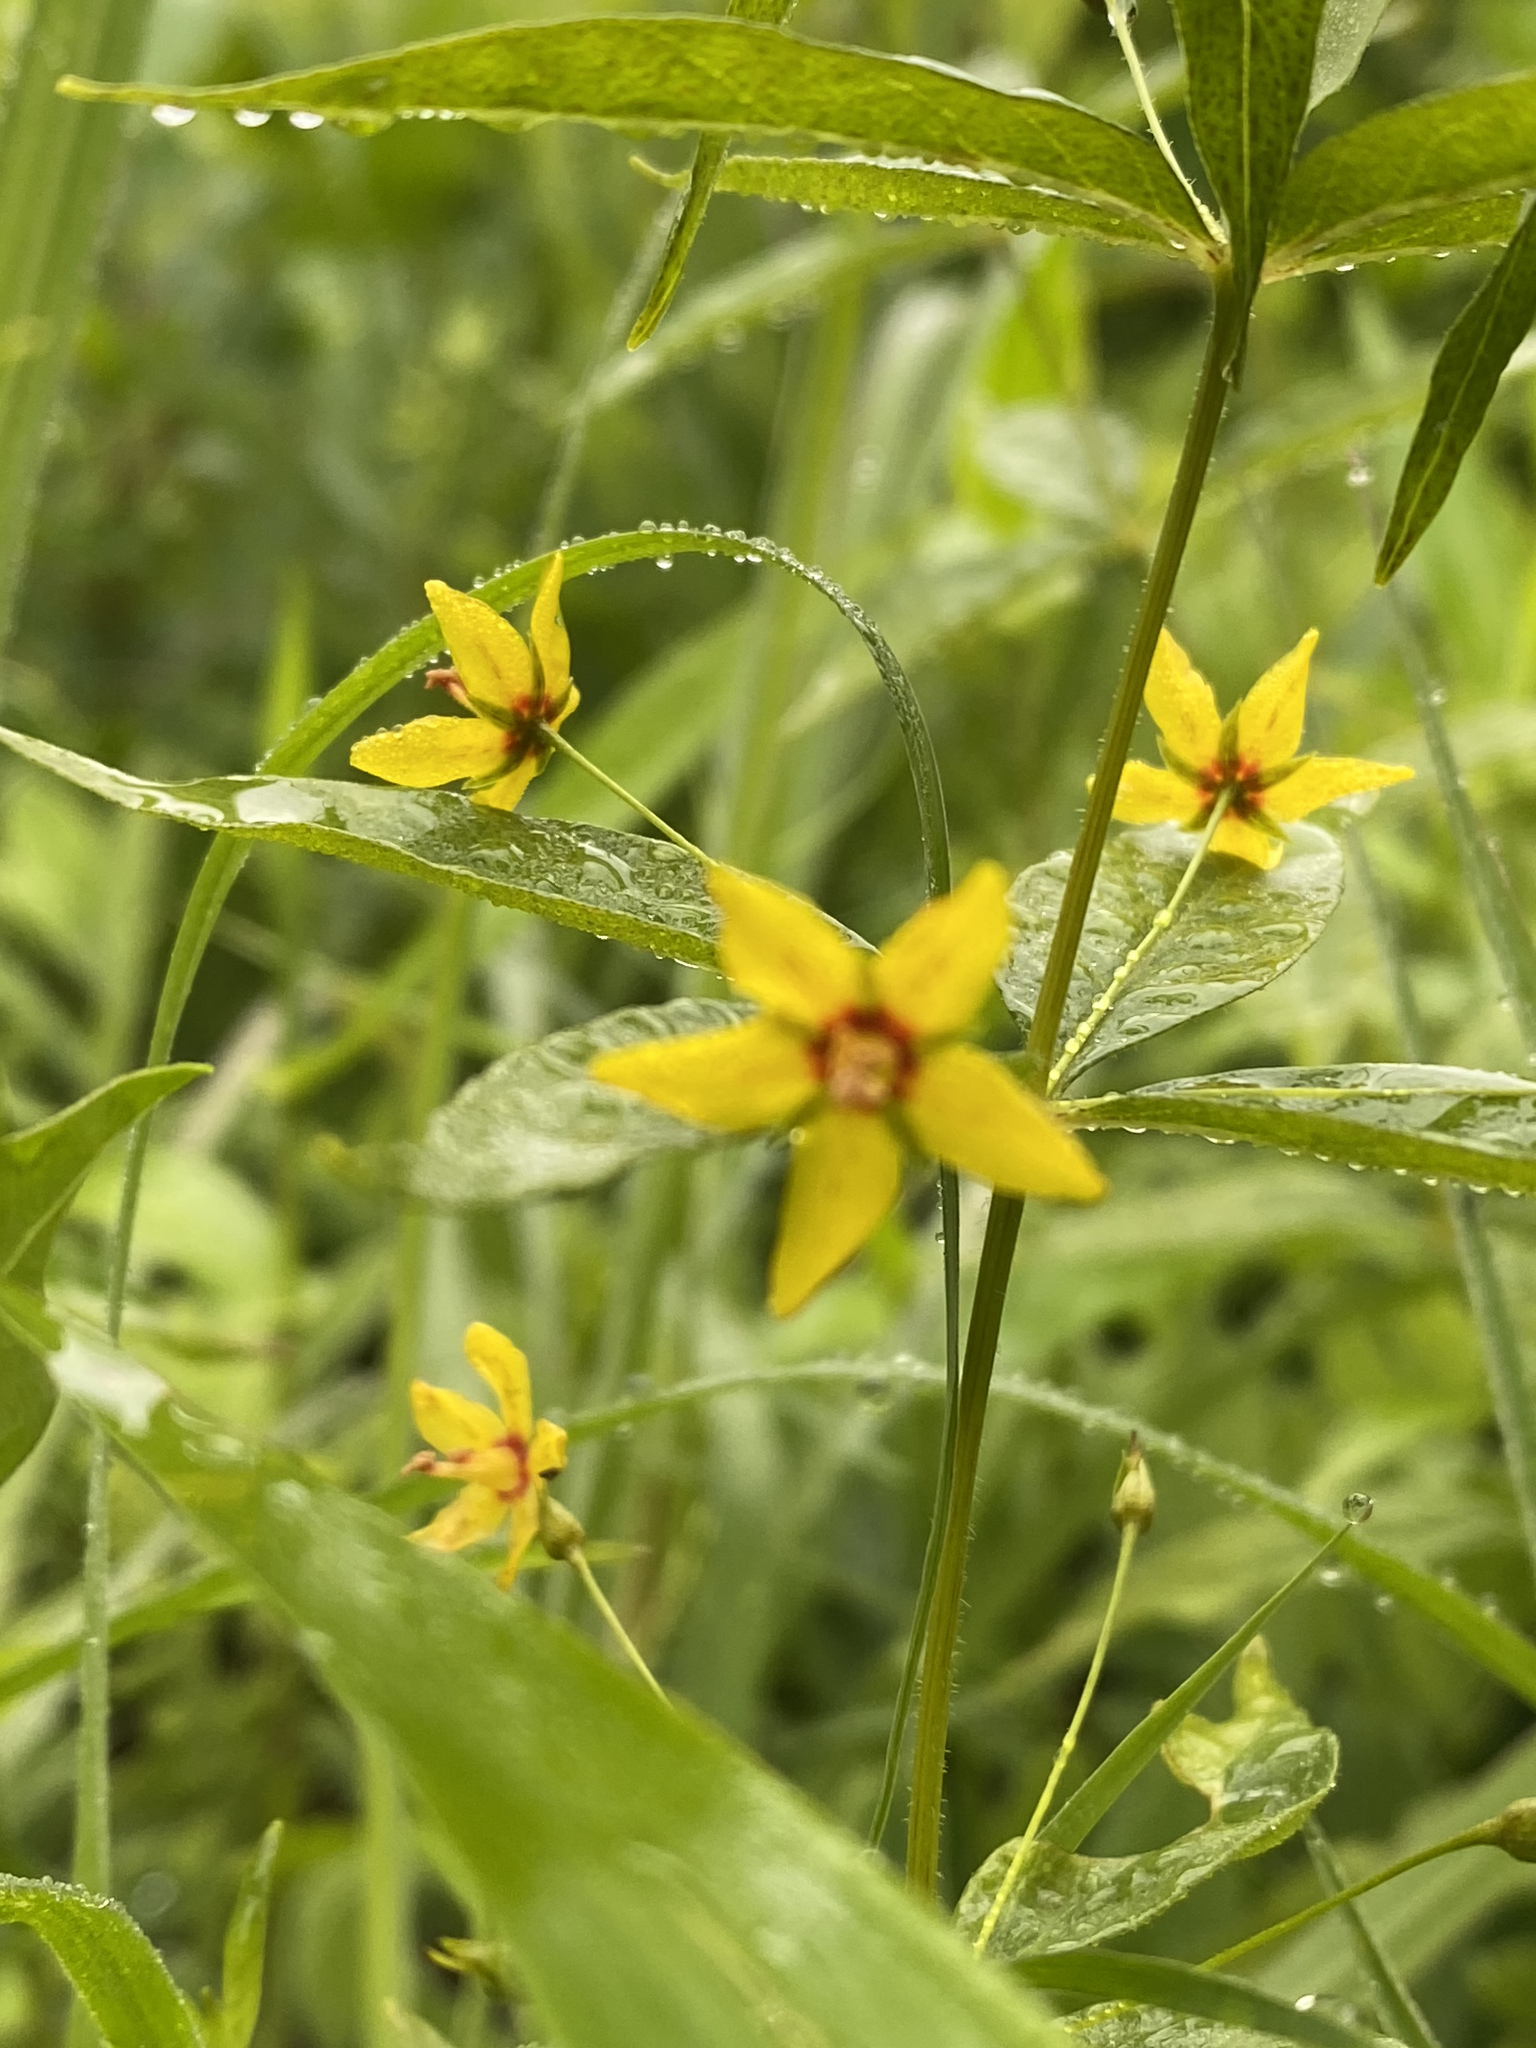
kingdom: Plantae
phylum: Tracheophyta
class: Magnoliopsida
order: Ericales
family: Primulaceae
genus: Lysimachia
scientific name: Lysimachia quadrifolia
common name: Whorled loosestrife
